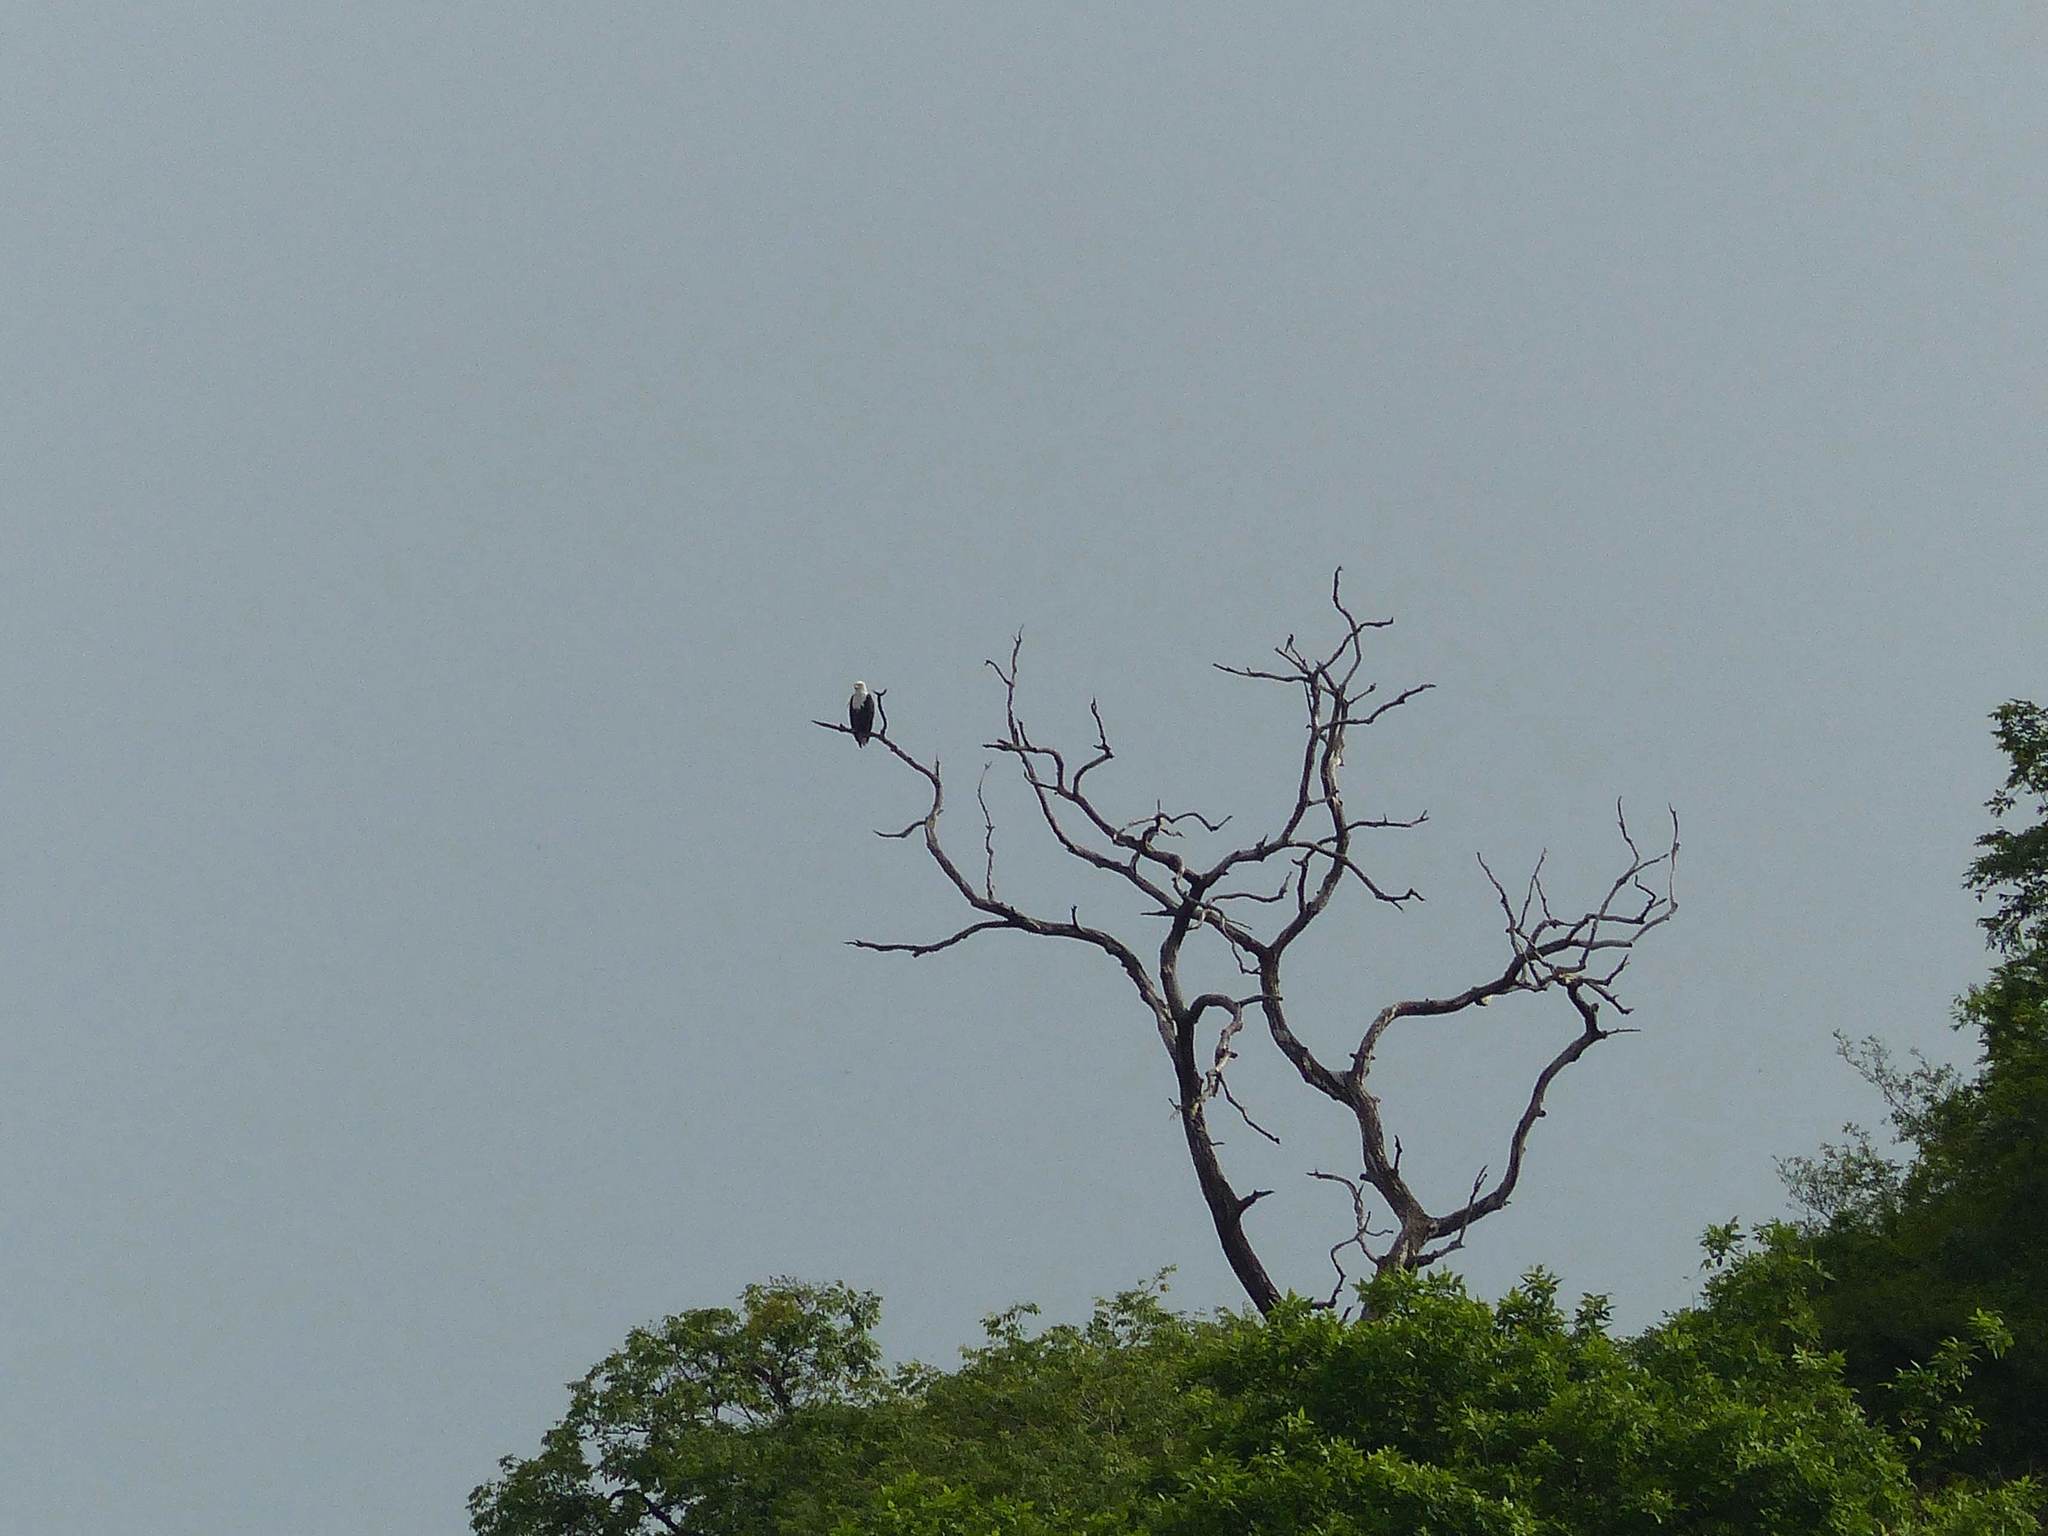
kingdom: Animalia
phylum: Chordata
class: Aves
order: Accipitriformes
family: Accipitridae
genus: Haliaeetus
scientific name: Haliaeetus vocifer
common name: African fish eagle
